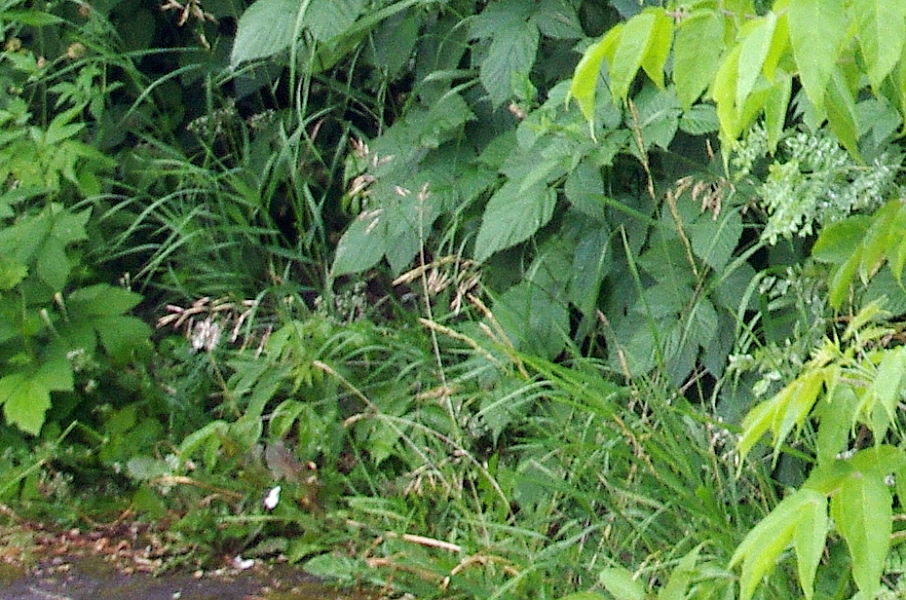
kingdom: Plantae
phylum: Tracheophyta
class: Liliopsida
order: Poales
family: Poaceae
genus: Bromus
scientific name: Bromus inermis
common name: Smooth brome
